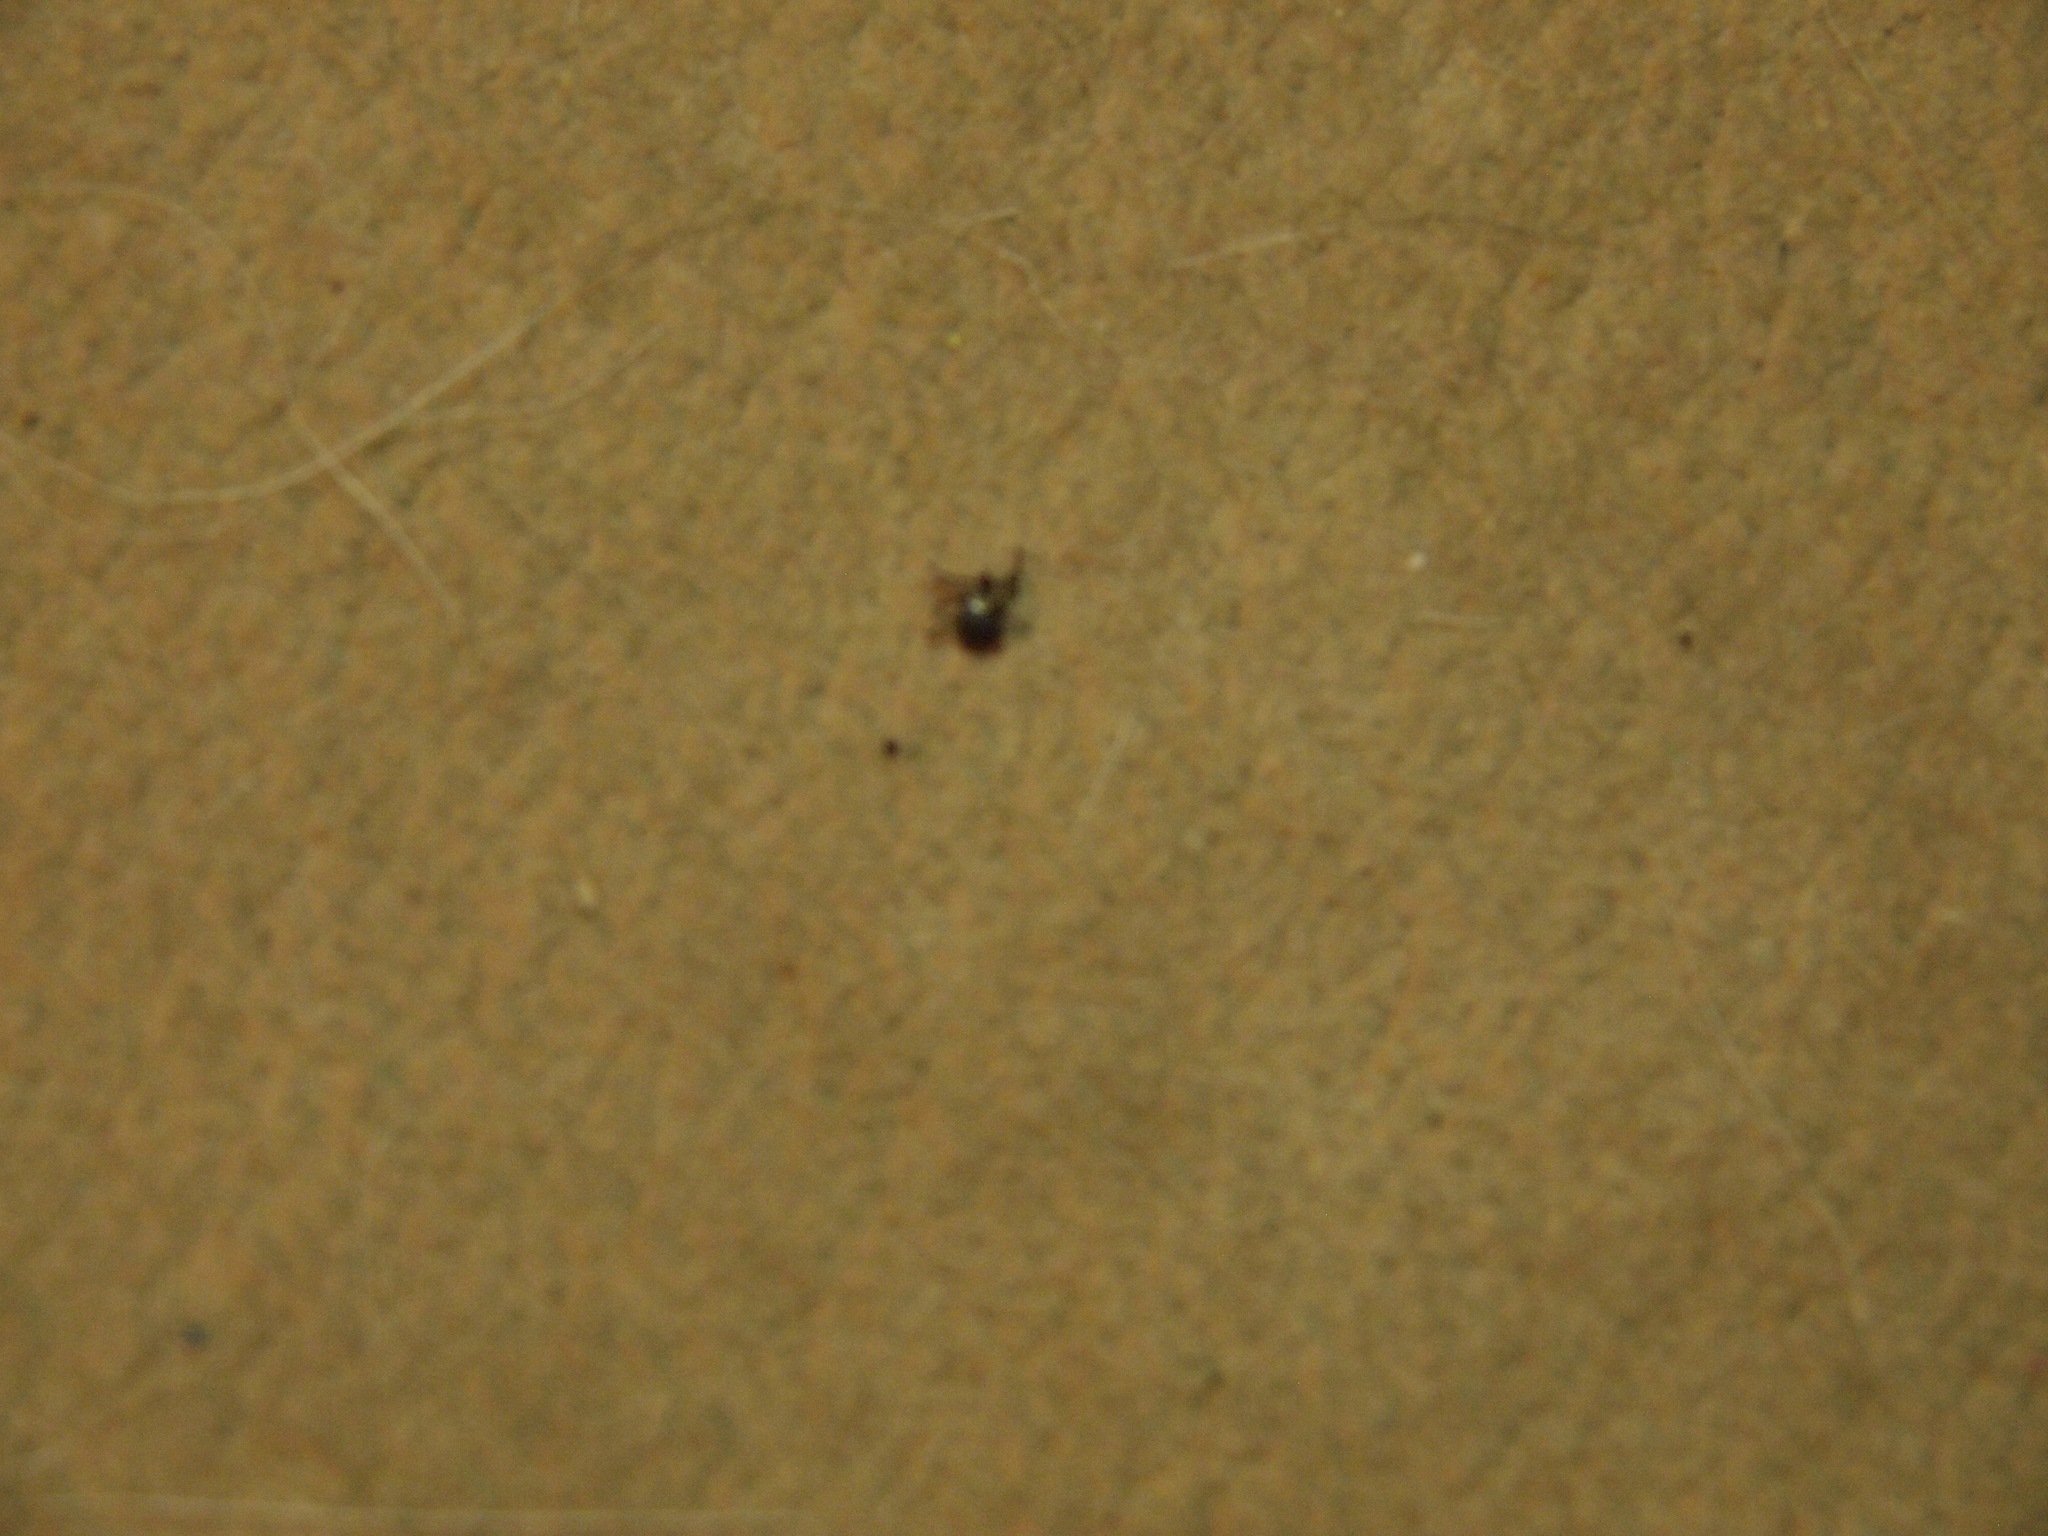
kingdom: Animalia
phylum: Arthropoda
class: Arachnida
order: Ixodida
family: Ixodidae
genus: Dermacentor
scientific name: Dermacentor variabilis
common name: American dog tick
